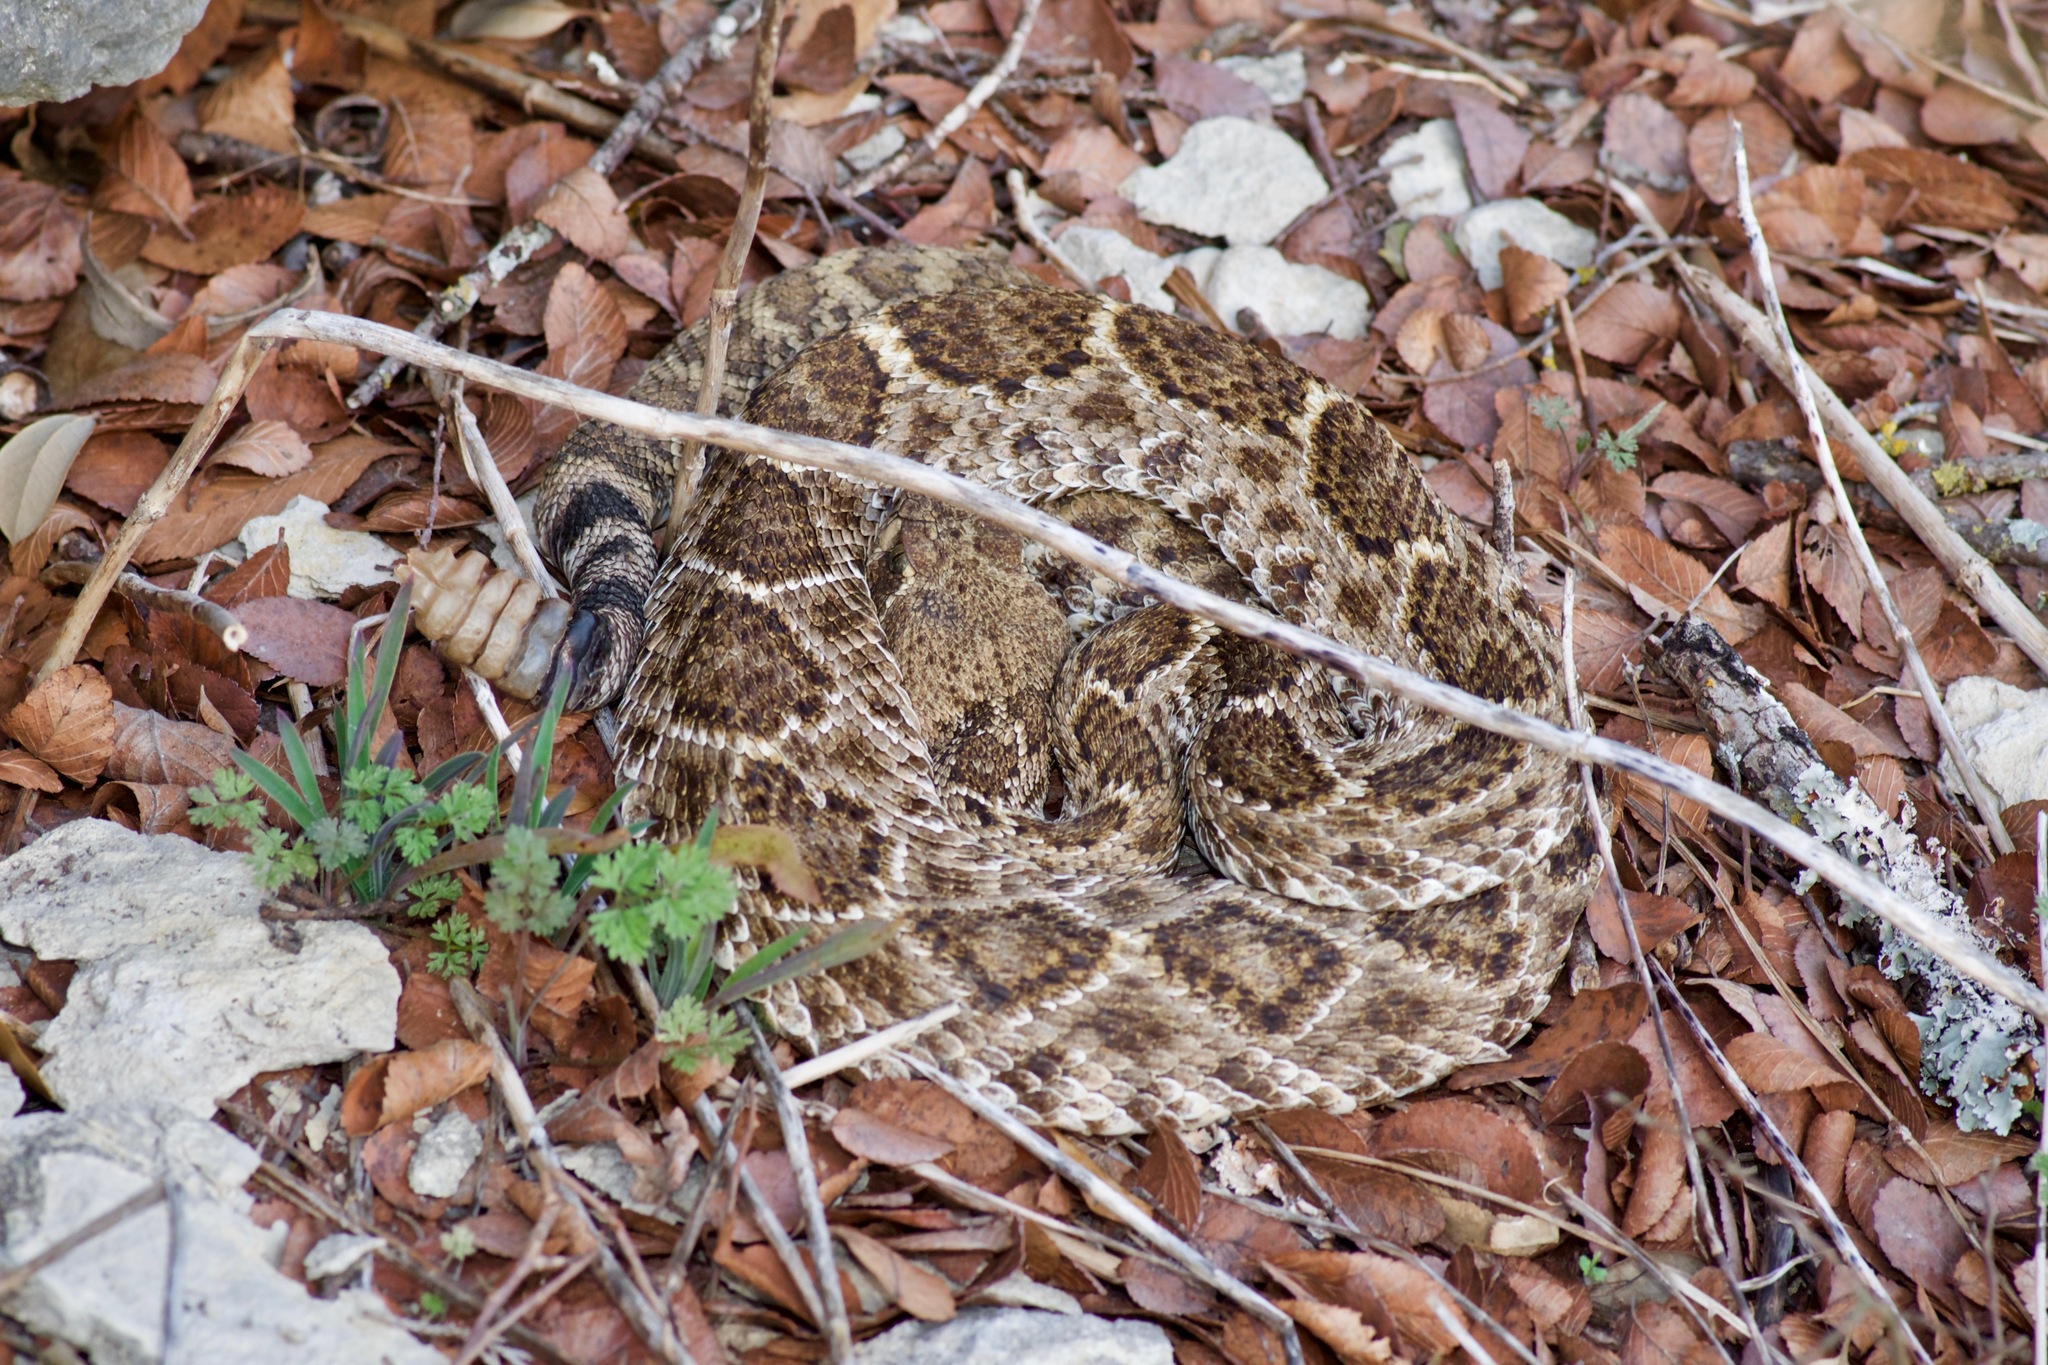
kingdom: Animalia
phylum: Chordata
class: Squamata
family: Viperidae
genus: Crotalus
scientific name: Crotalus atrox
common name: Western diamond-backed rattlesnake
